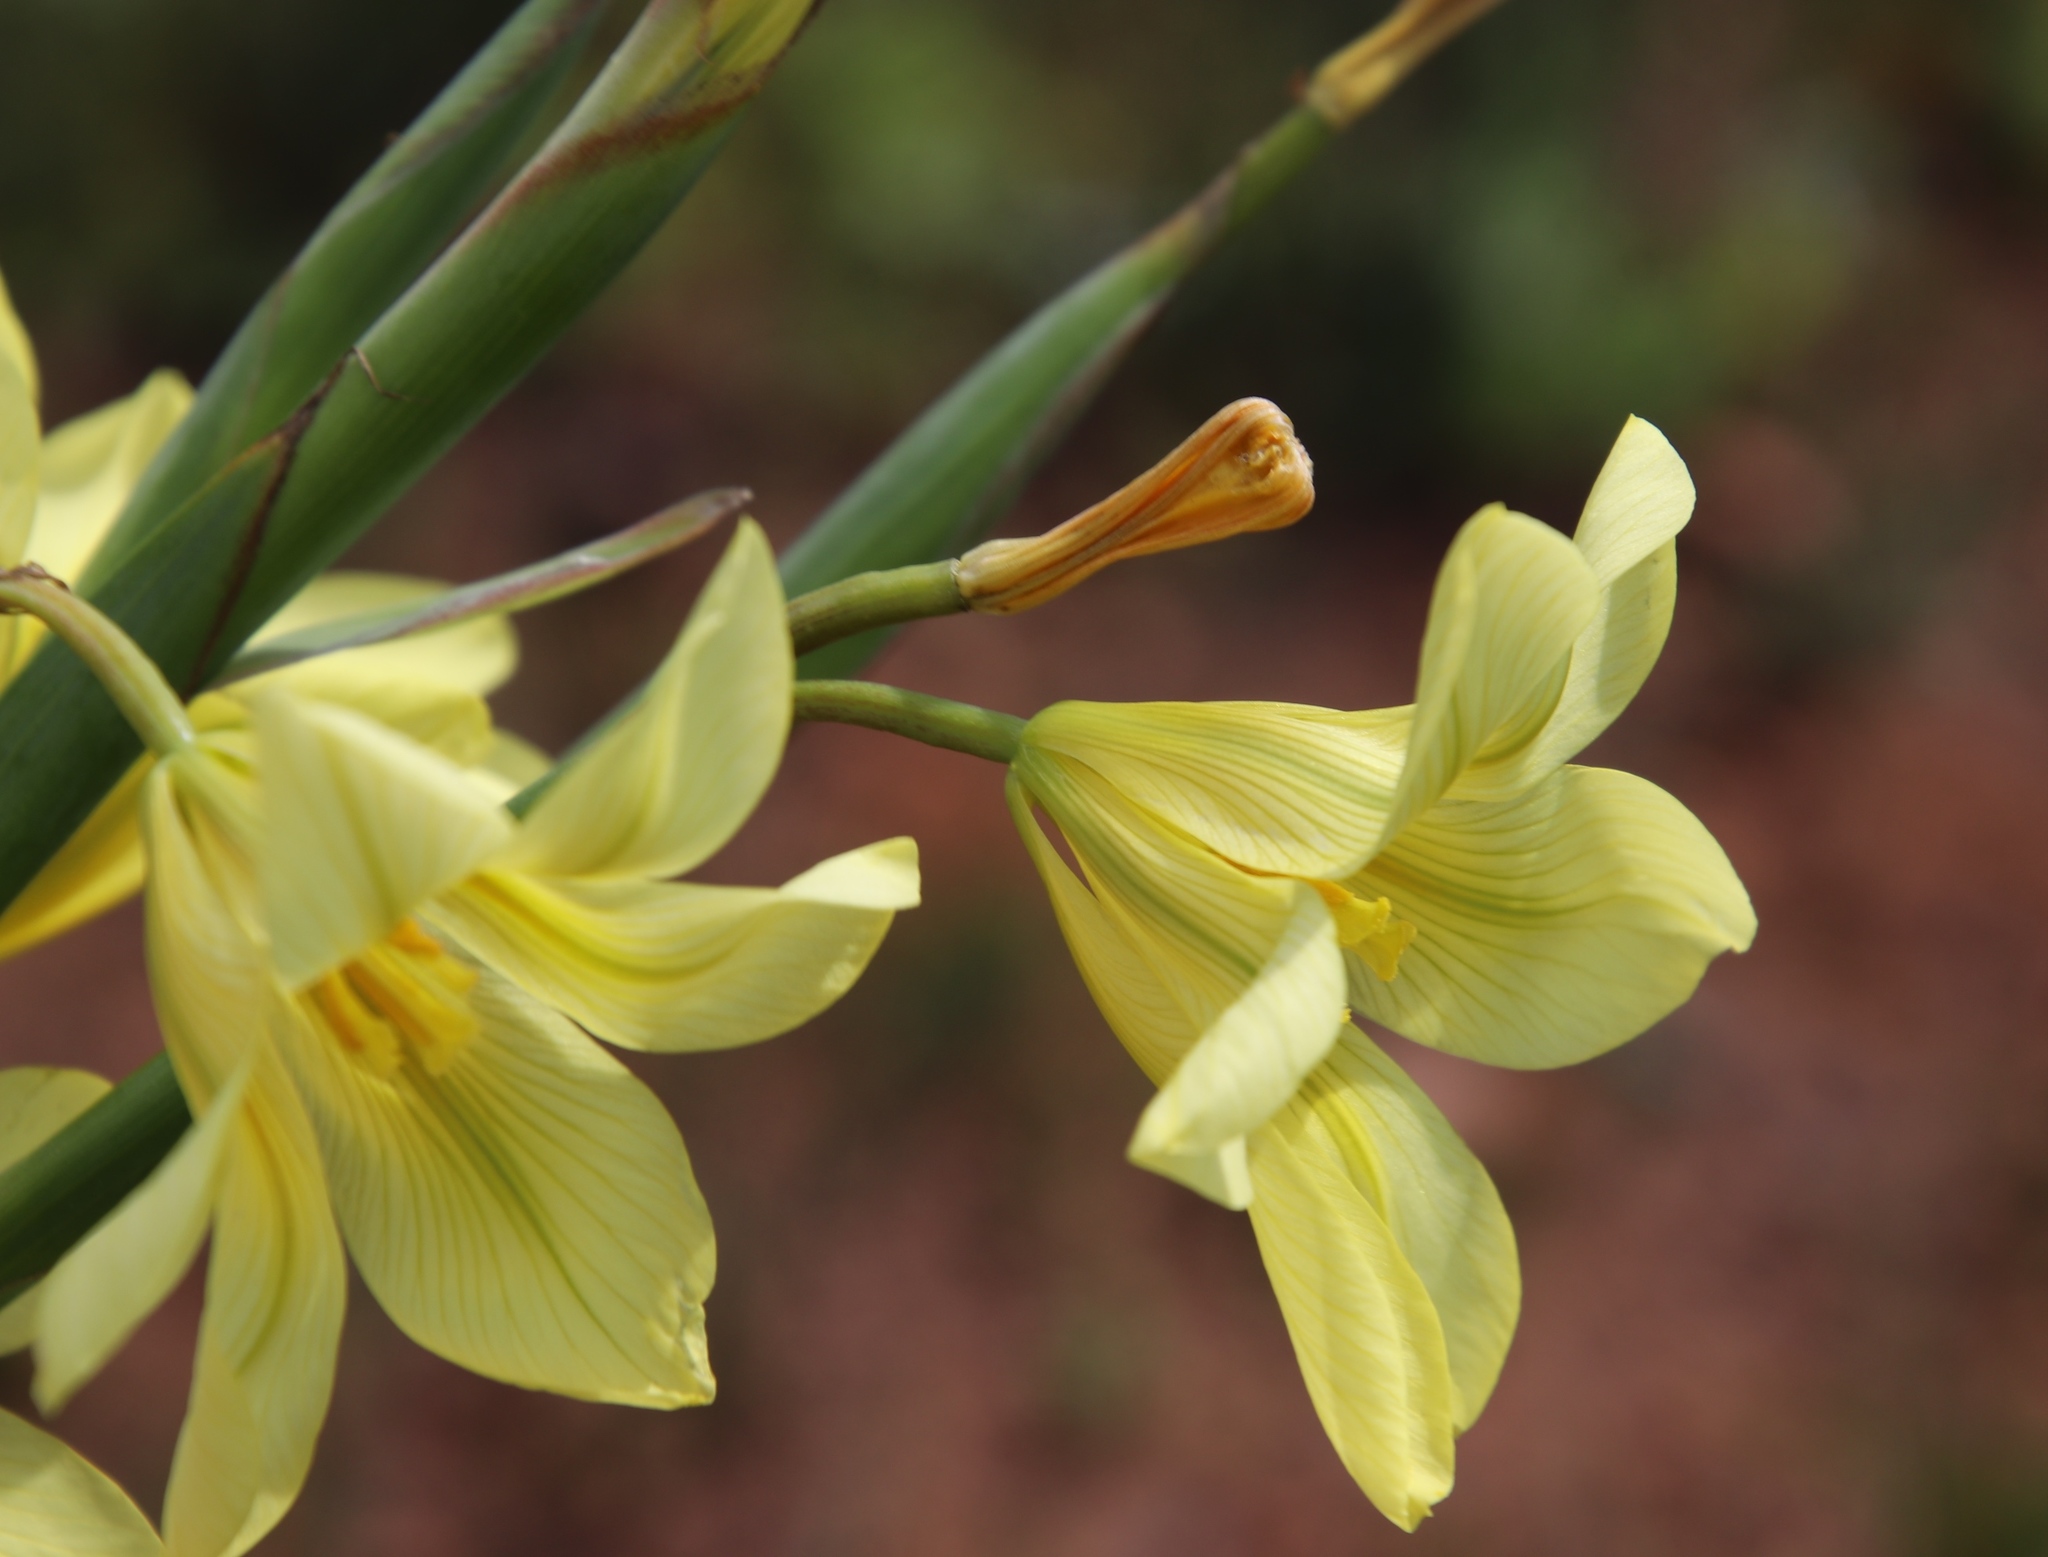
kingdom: Plantae
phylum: Tracheophyta
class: Liliopsida
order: Asparagales
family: Iridaceae
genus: Moraea
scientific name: Moraea ochroleuca
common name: Red tulp
